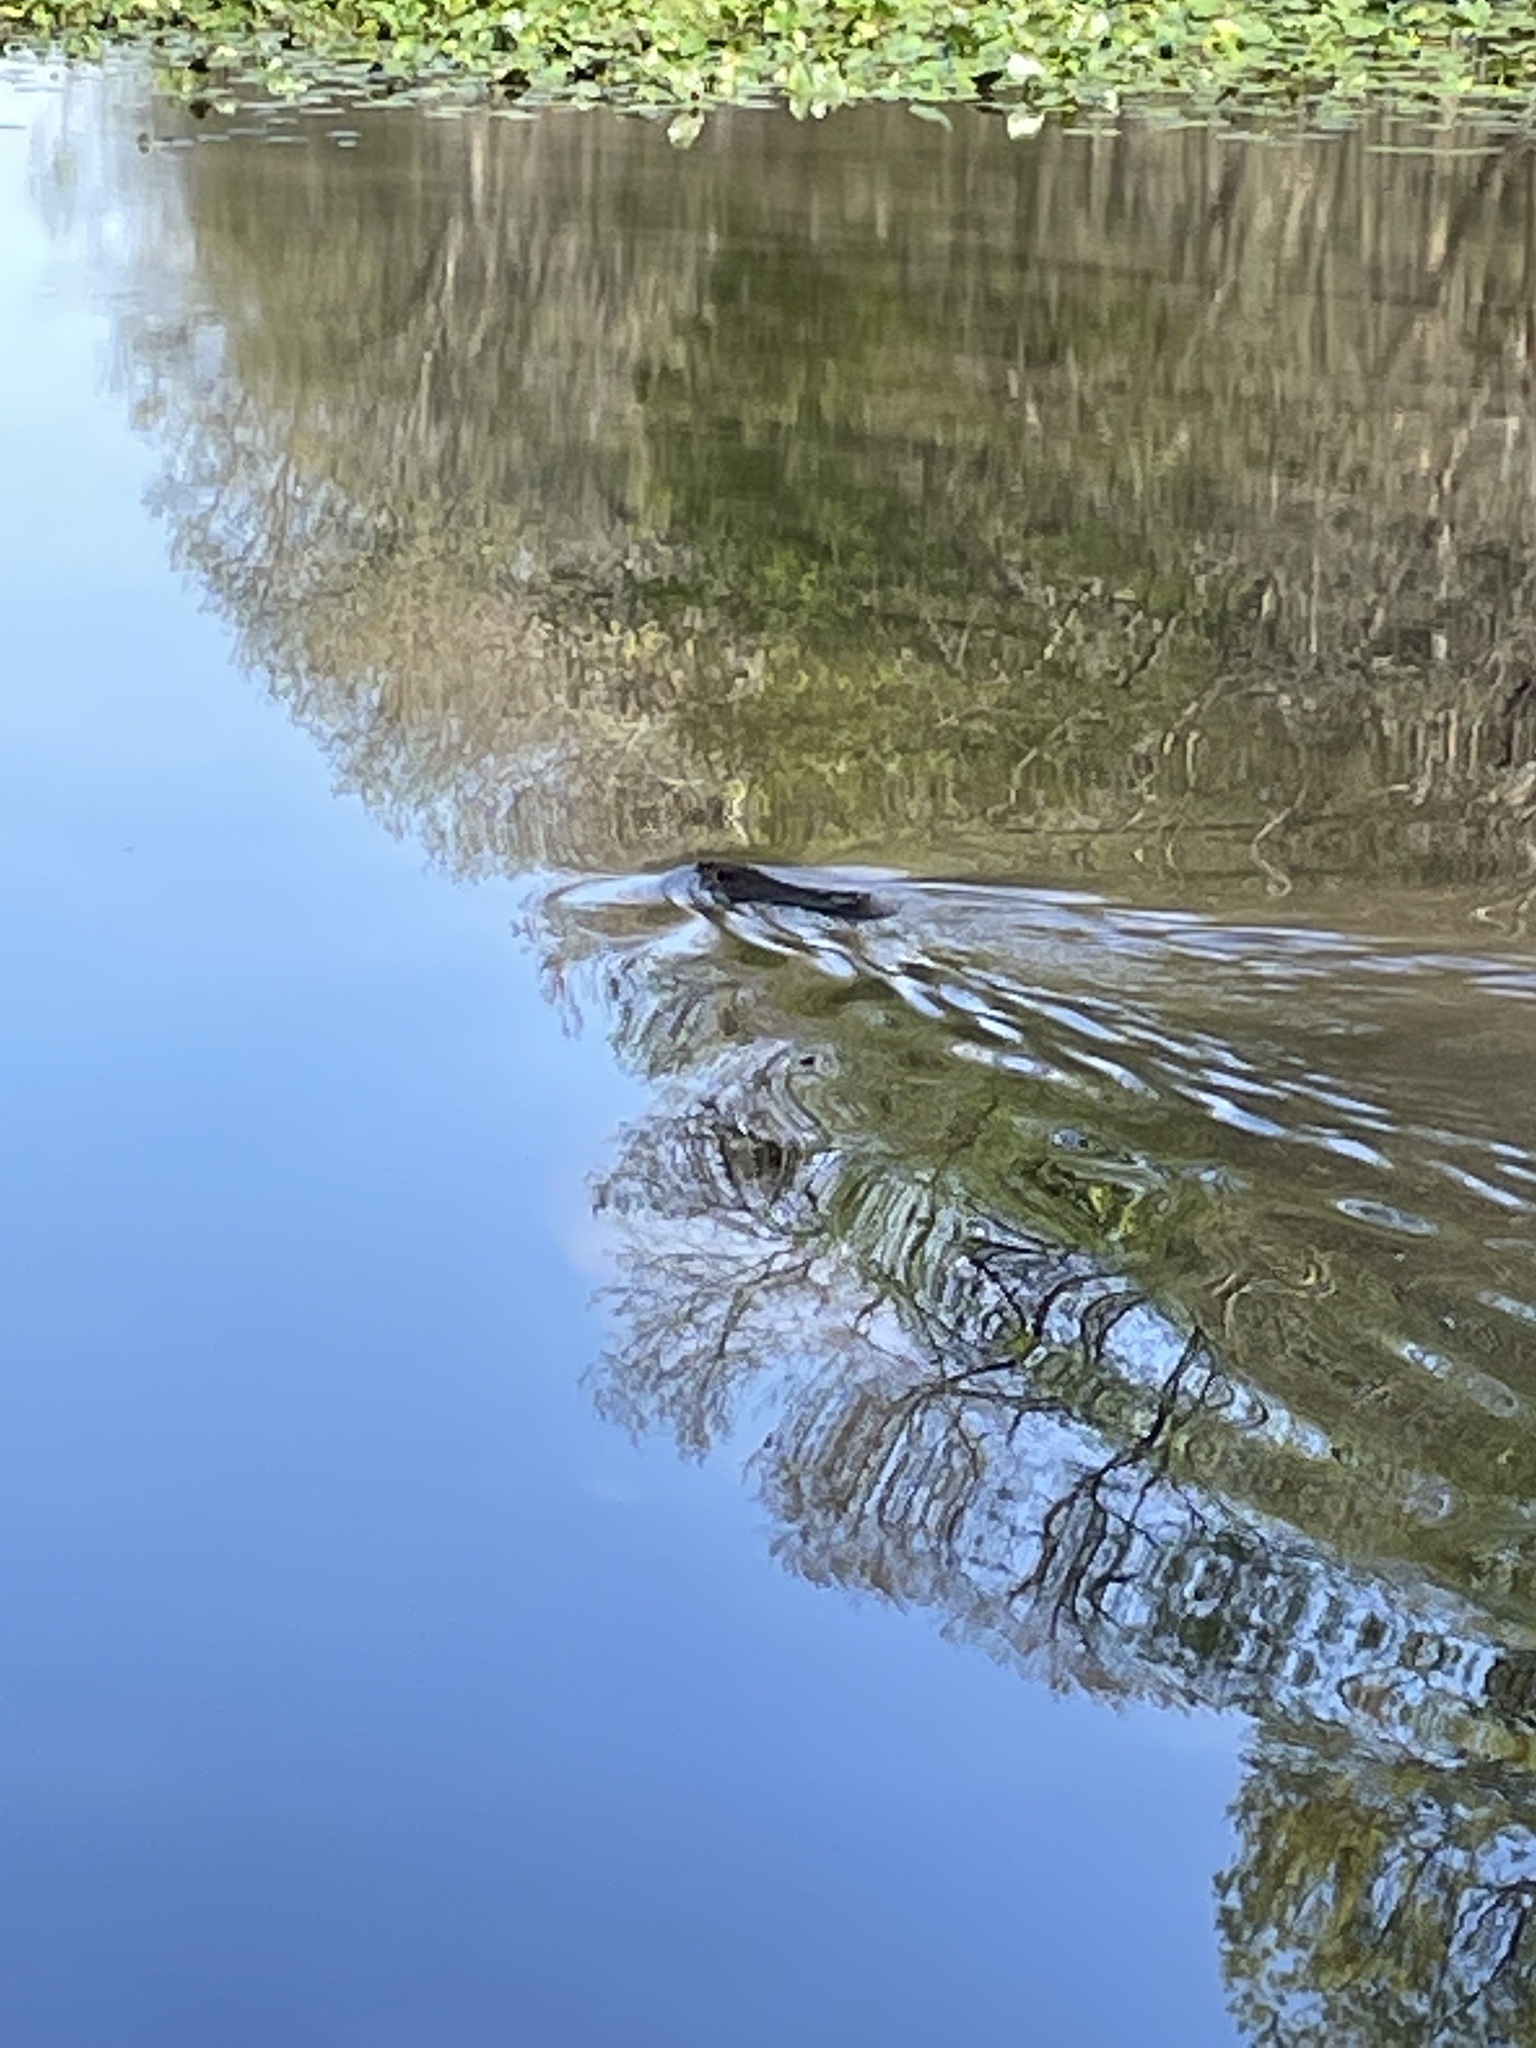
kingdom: Animalia
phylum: Chordata
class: Mammalia
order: Rodentia
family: Castoridae
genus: Castor
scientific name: Castor canadensis
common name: American beaver
